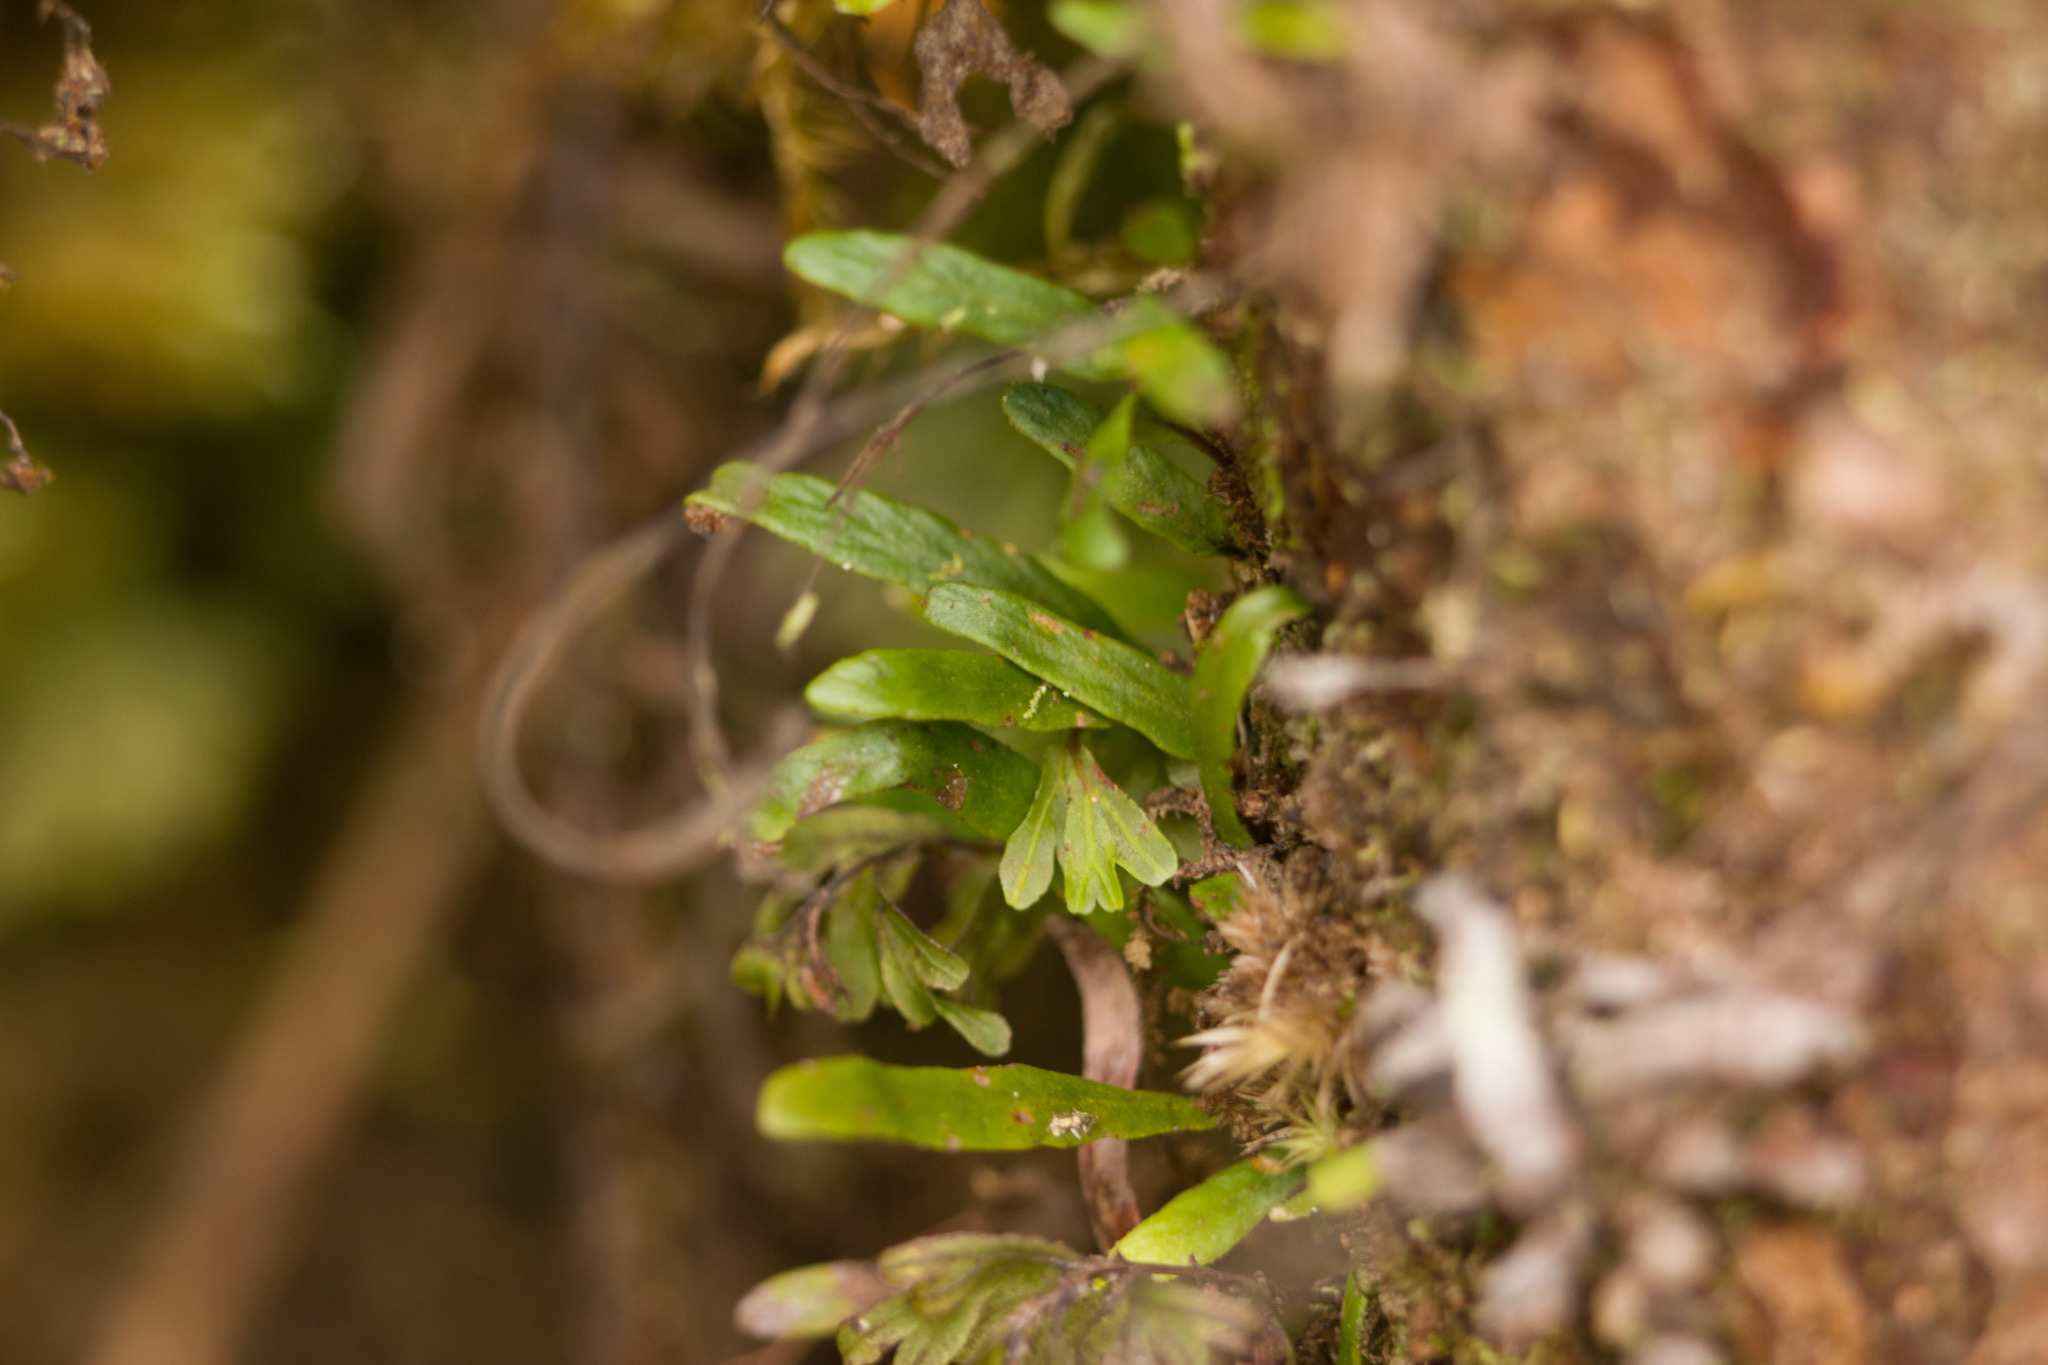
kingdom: Plantae
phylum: Tracheophyta
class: Polypodiopsida
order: Polypodiales
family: Polypodiaceae
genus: Adenophorus
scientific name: Adenophorus tenellus
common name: Kolokolo
